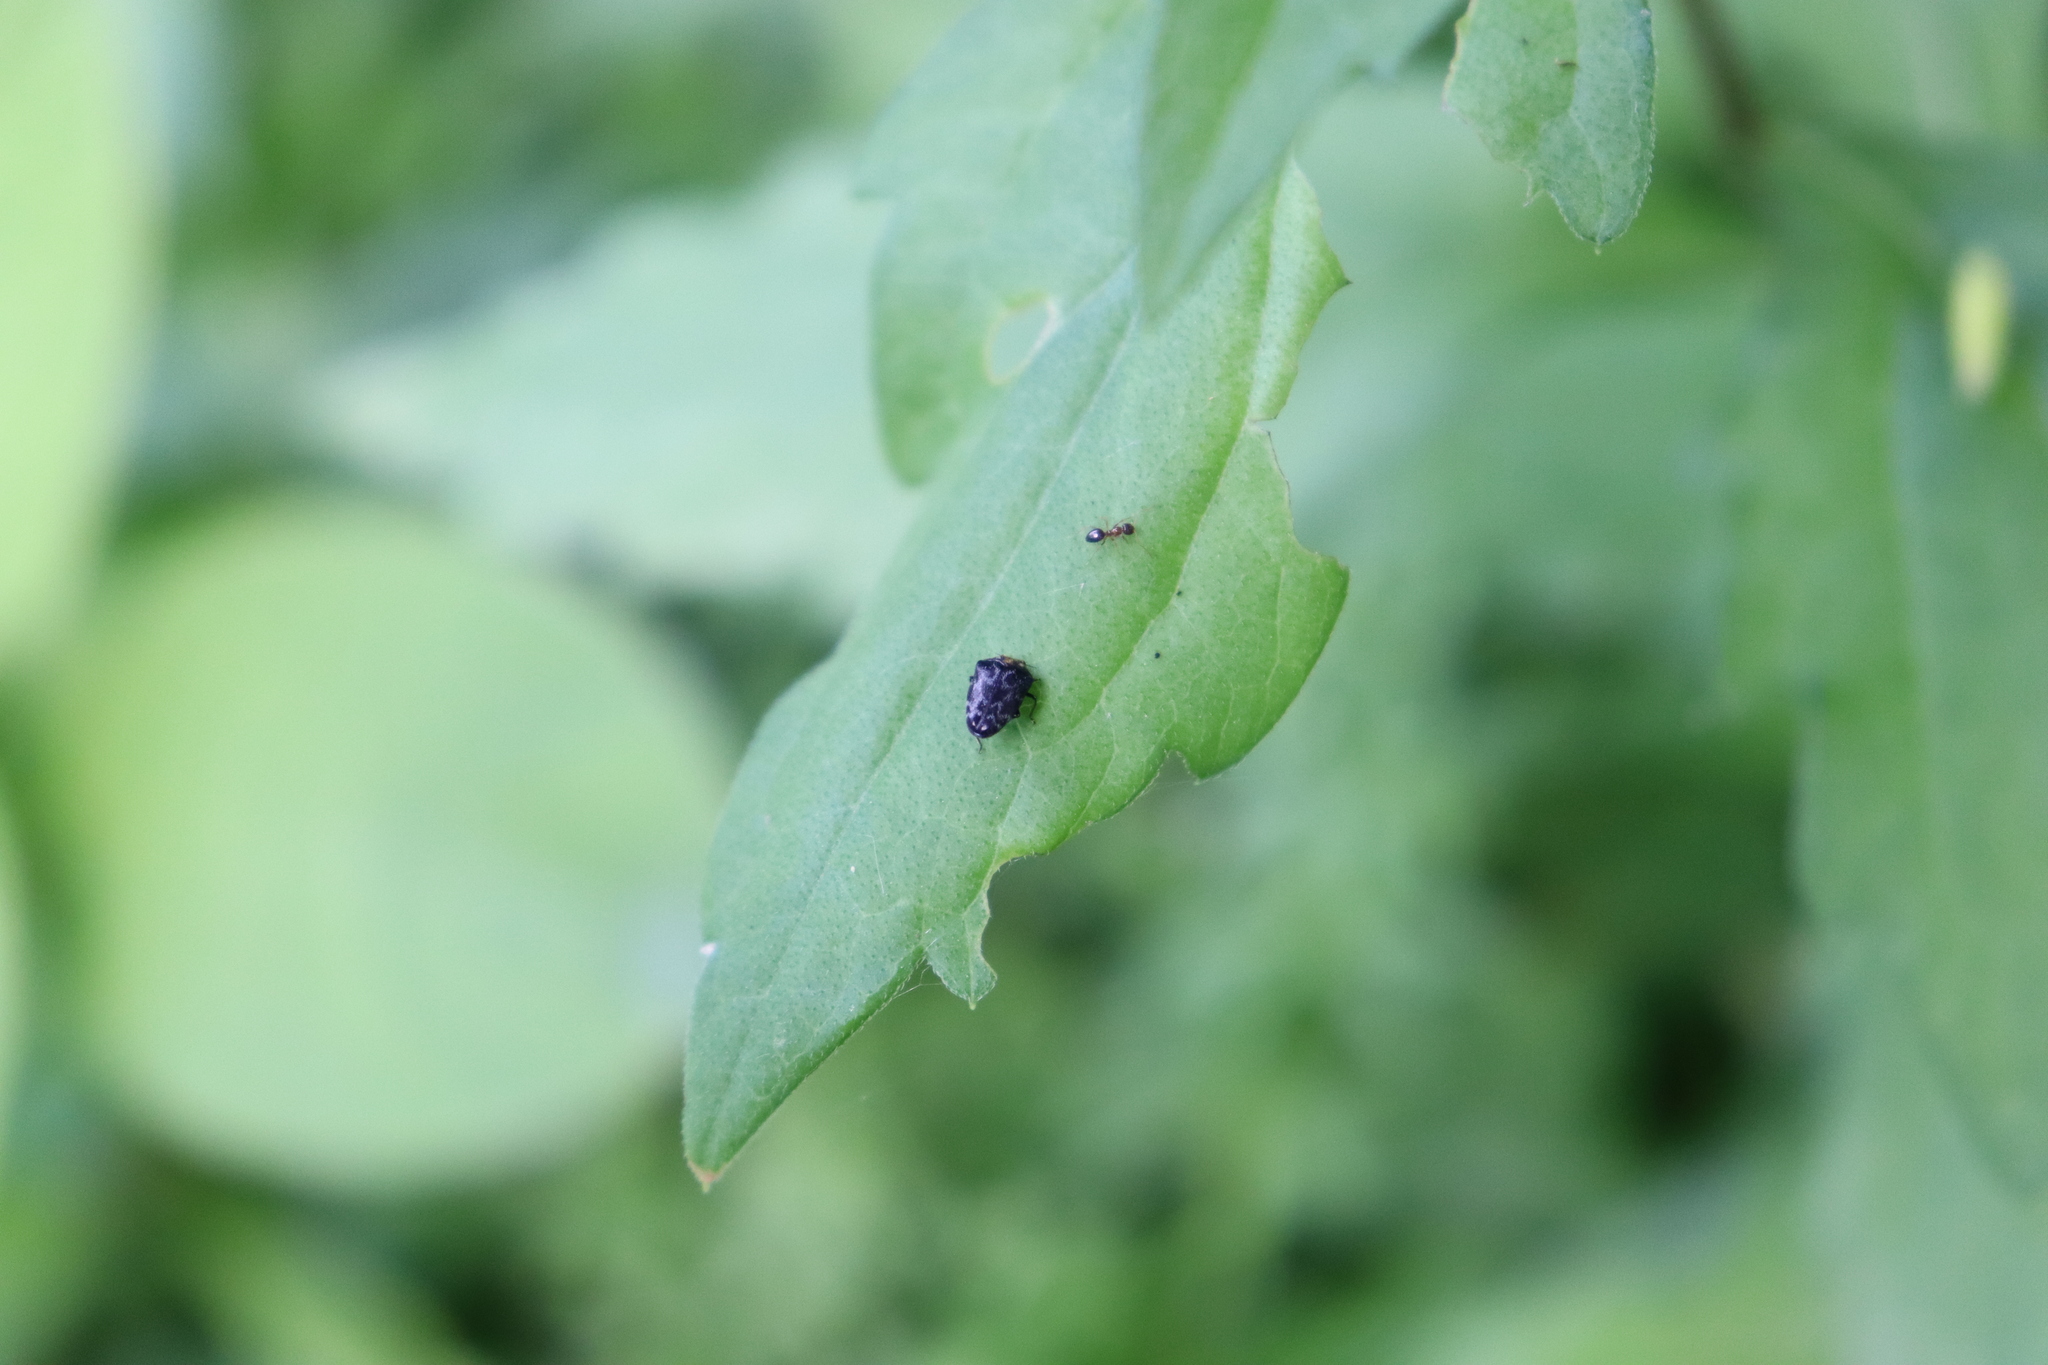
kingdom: Animalia
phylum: Arthropoda
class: Insecta
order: Coleoptera
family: Buprestidae
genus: Trachys
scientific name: Trachys auricollis
